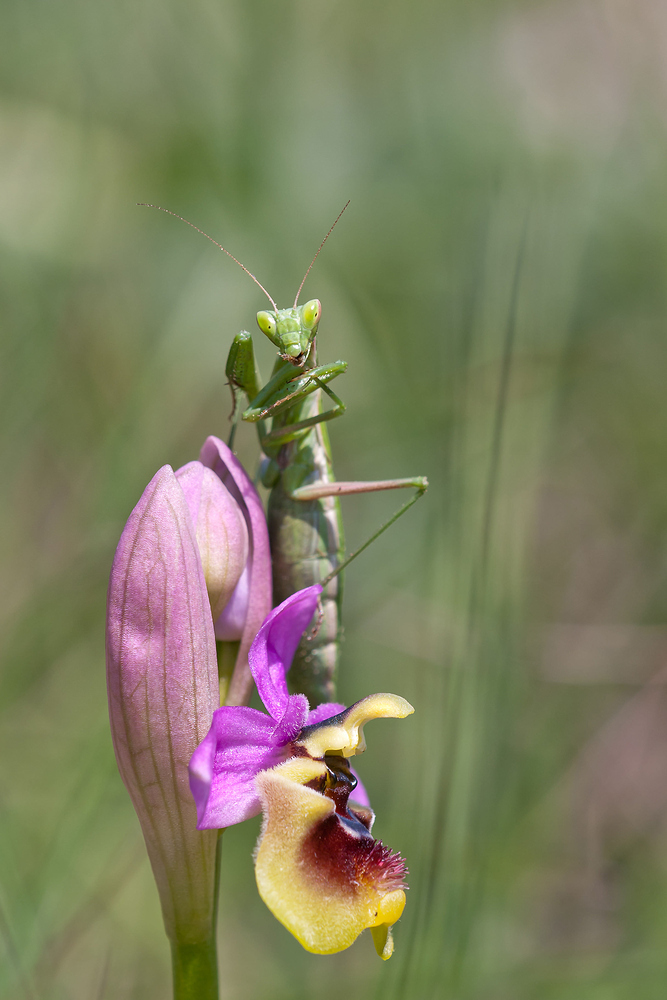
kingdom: Animalia
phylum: Arthropoda
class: Insecta
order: Mantodea
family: Amelidae
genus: Ameles
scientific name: Ameles picteti
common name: Pictet's dwarf mantis
